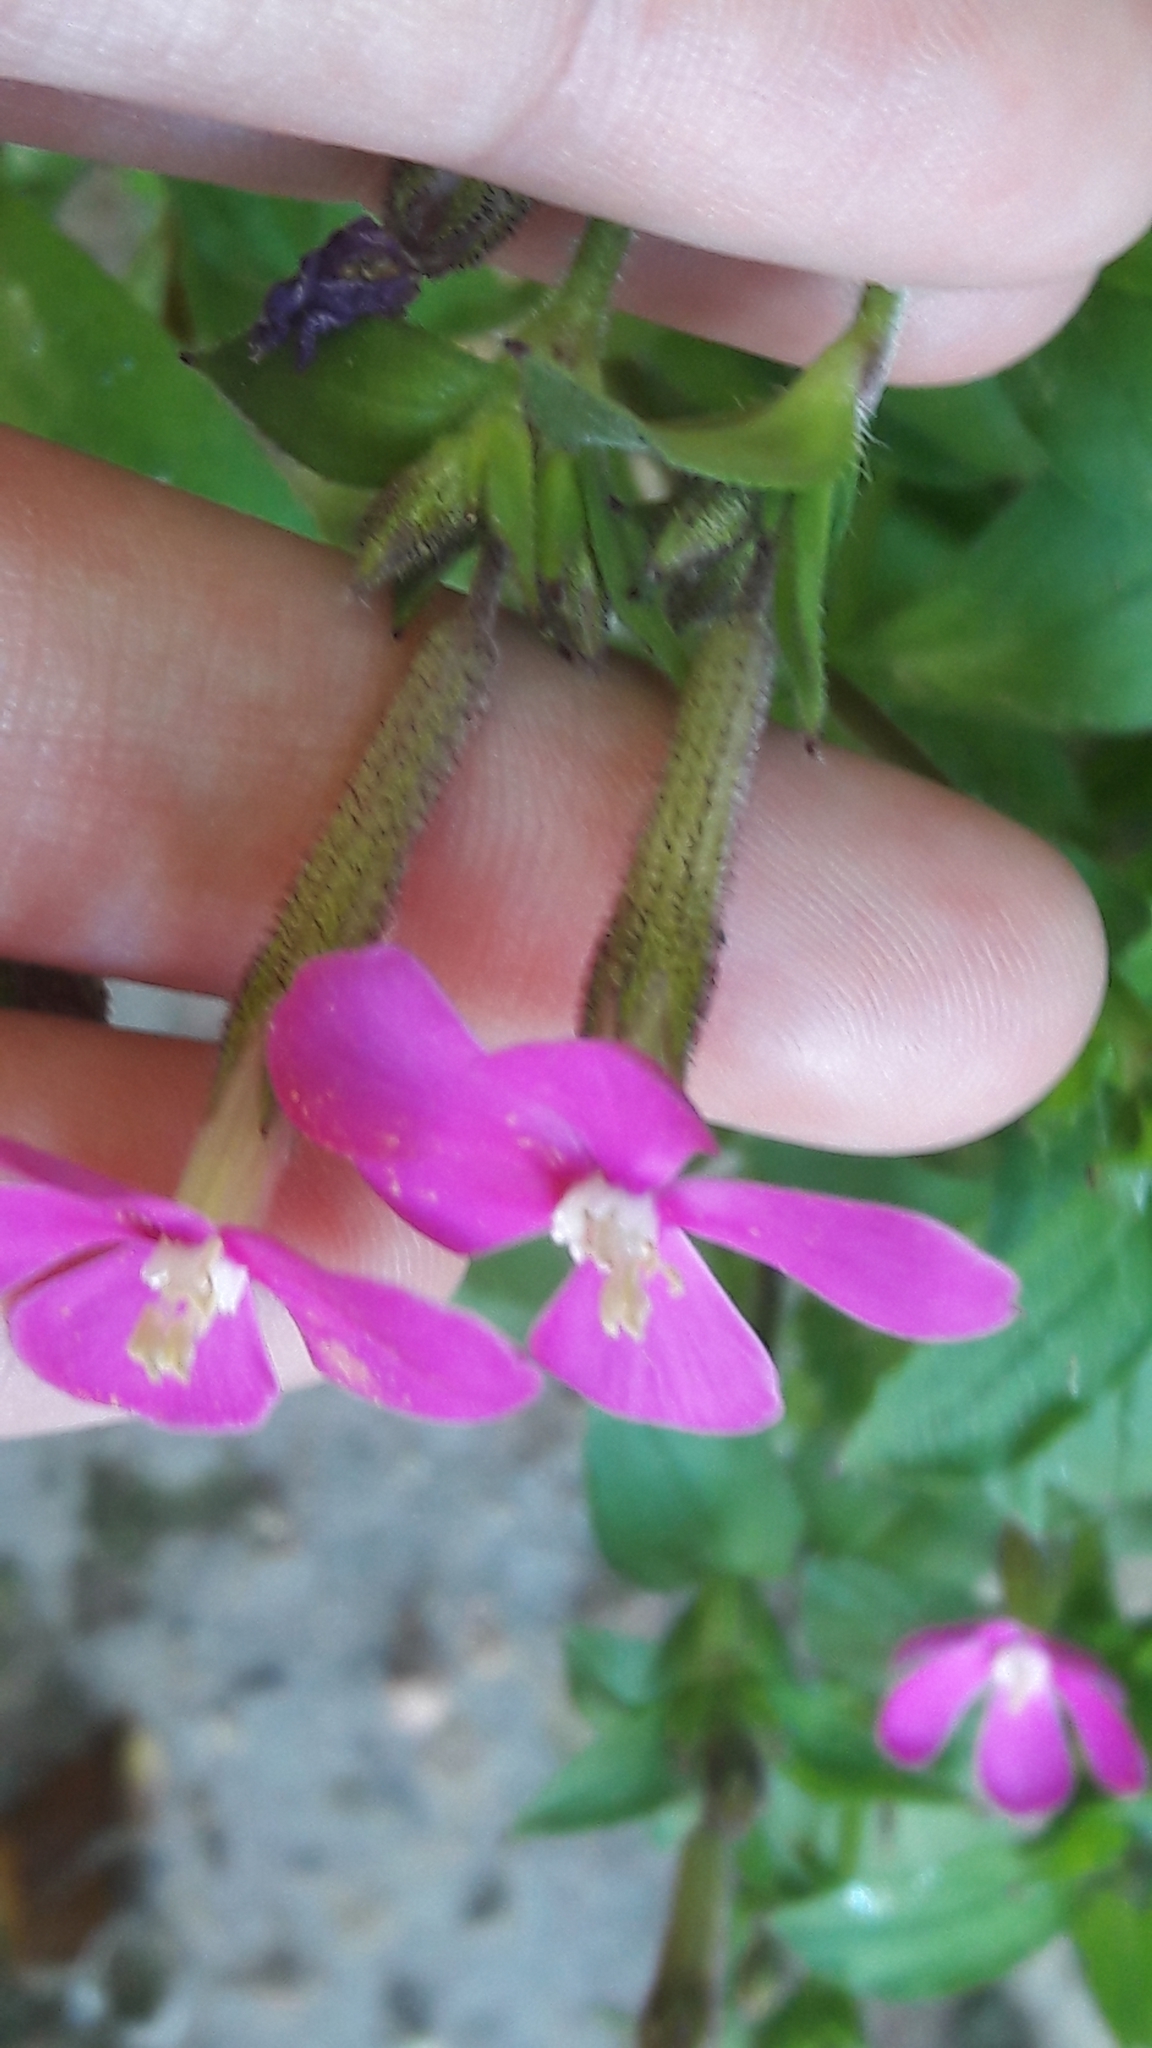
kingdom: Plantae
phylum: Tracheophyta
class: Magnoliopsida
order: Caryophyllales
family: Caryophyllaceae
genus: Silene
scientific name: Silene pseudoatocion
